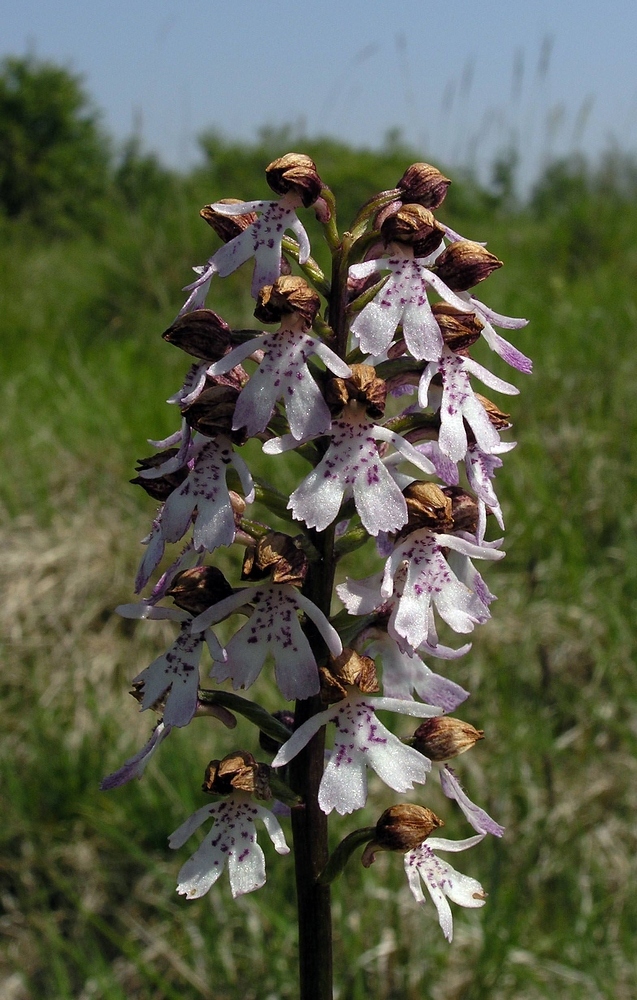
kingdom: Plantae
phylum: Tracheophyta
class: Liliopsida
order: Asparagales
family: Orchidaceae
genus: Orchis
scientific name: Orchis purpurea
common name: Lady orchid
